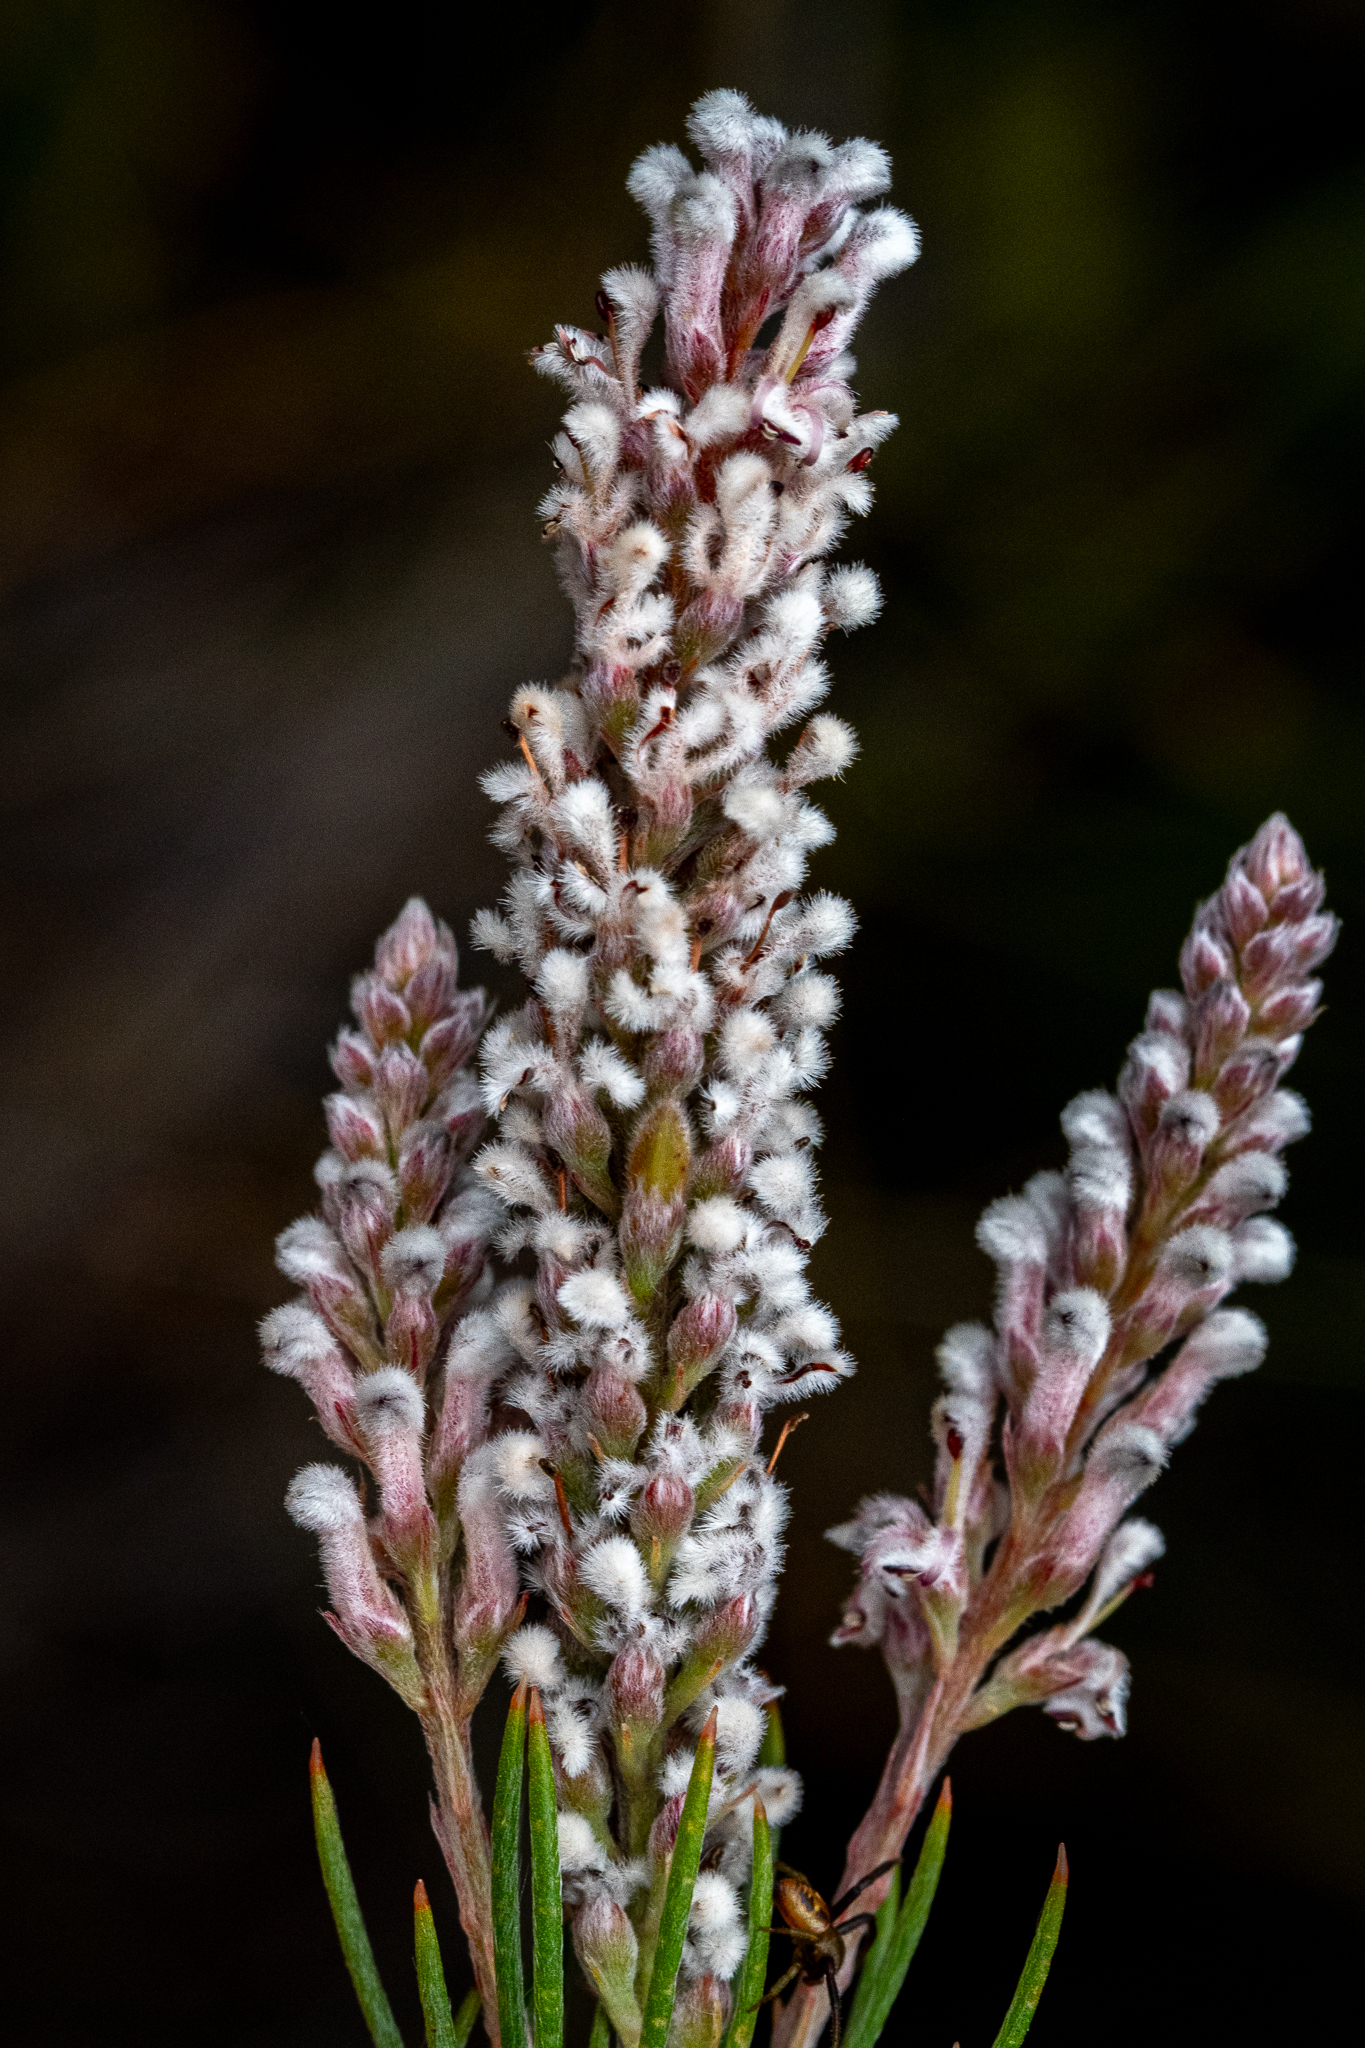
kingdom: Plantae
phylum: Tracheophyta
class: Magnoliopsida
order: Proteales
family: Proteaceae
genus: Spatalla
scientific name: Spatalla racemosa
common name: Lax-stalked spoon
